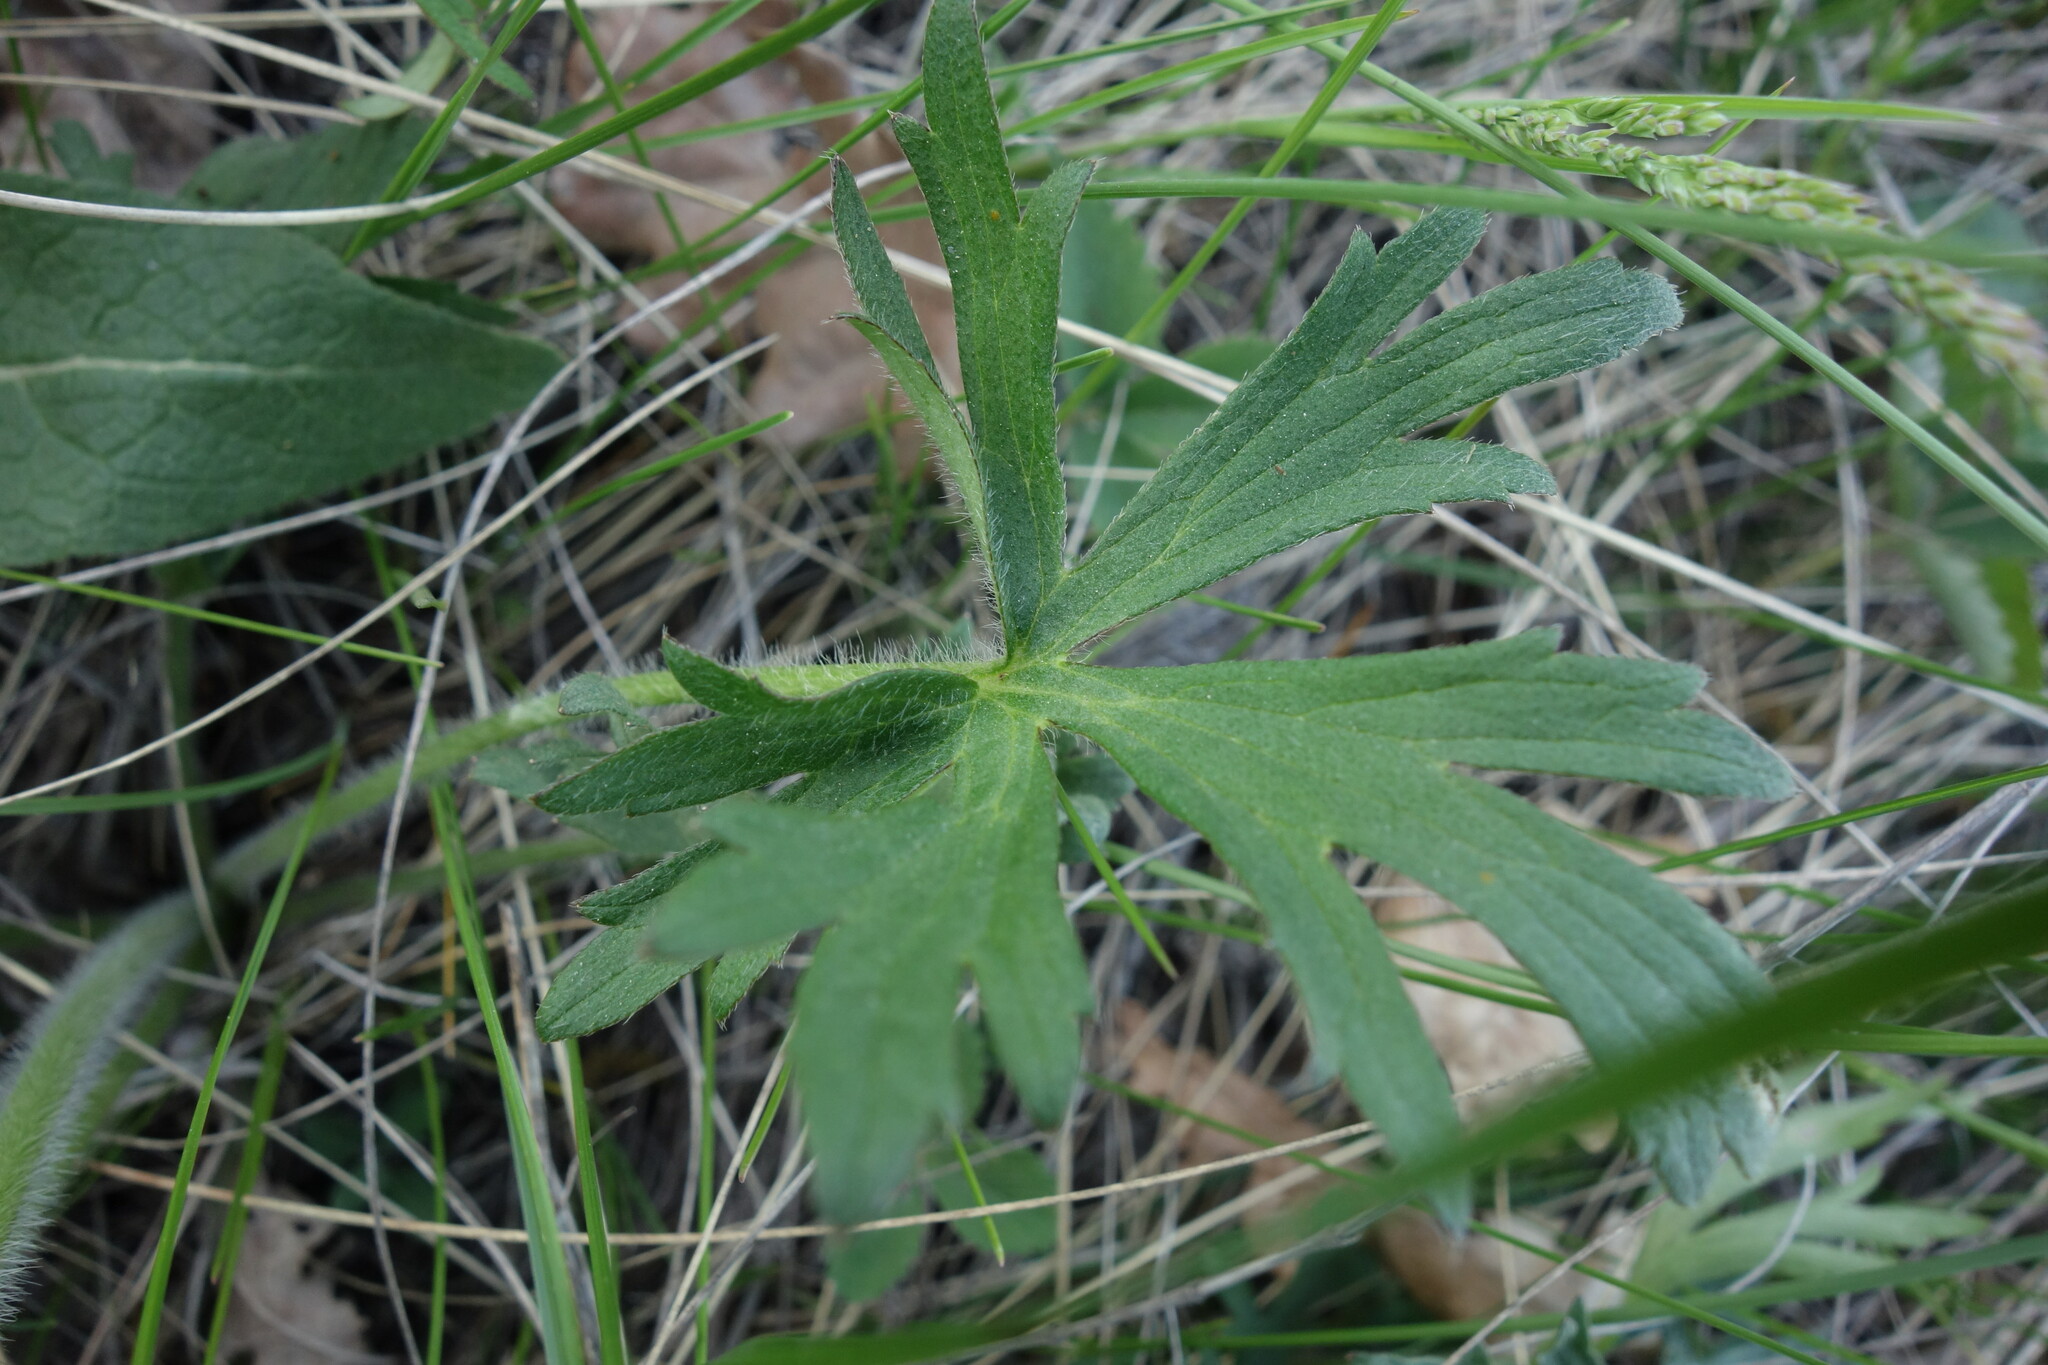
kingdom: Plantae
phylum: Tracheophyta
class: Magnoliopsida
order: Ranunculales
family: Ranunculaceae
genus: Ranunculus
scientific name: Ranunculus polyanthemos
